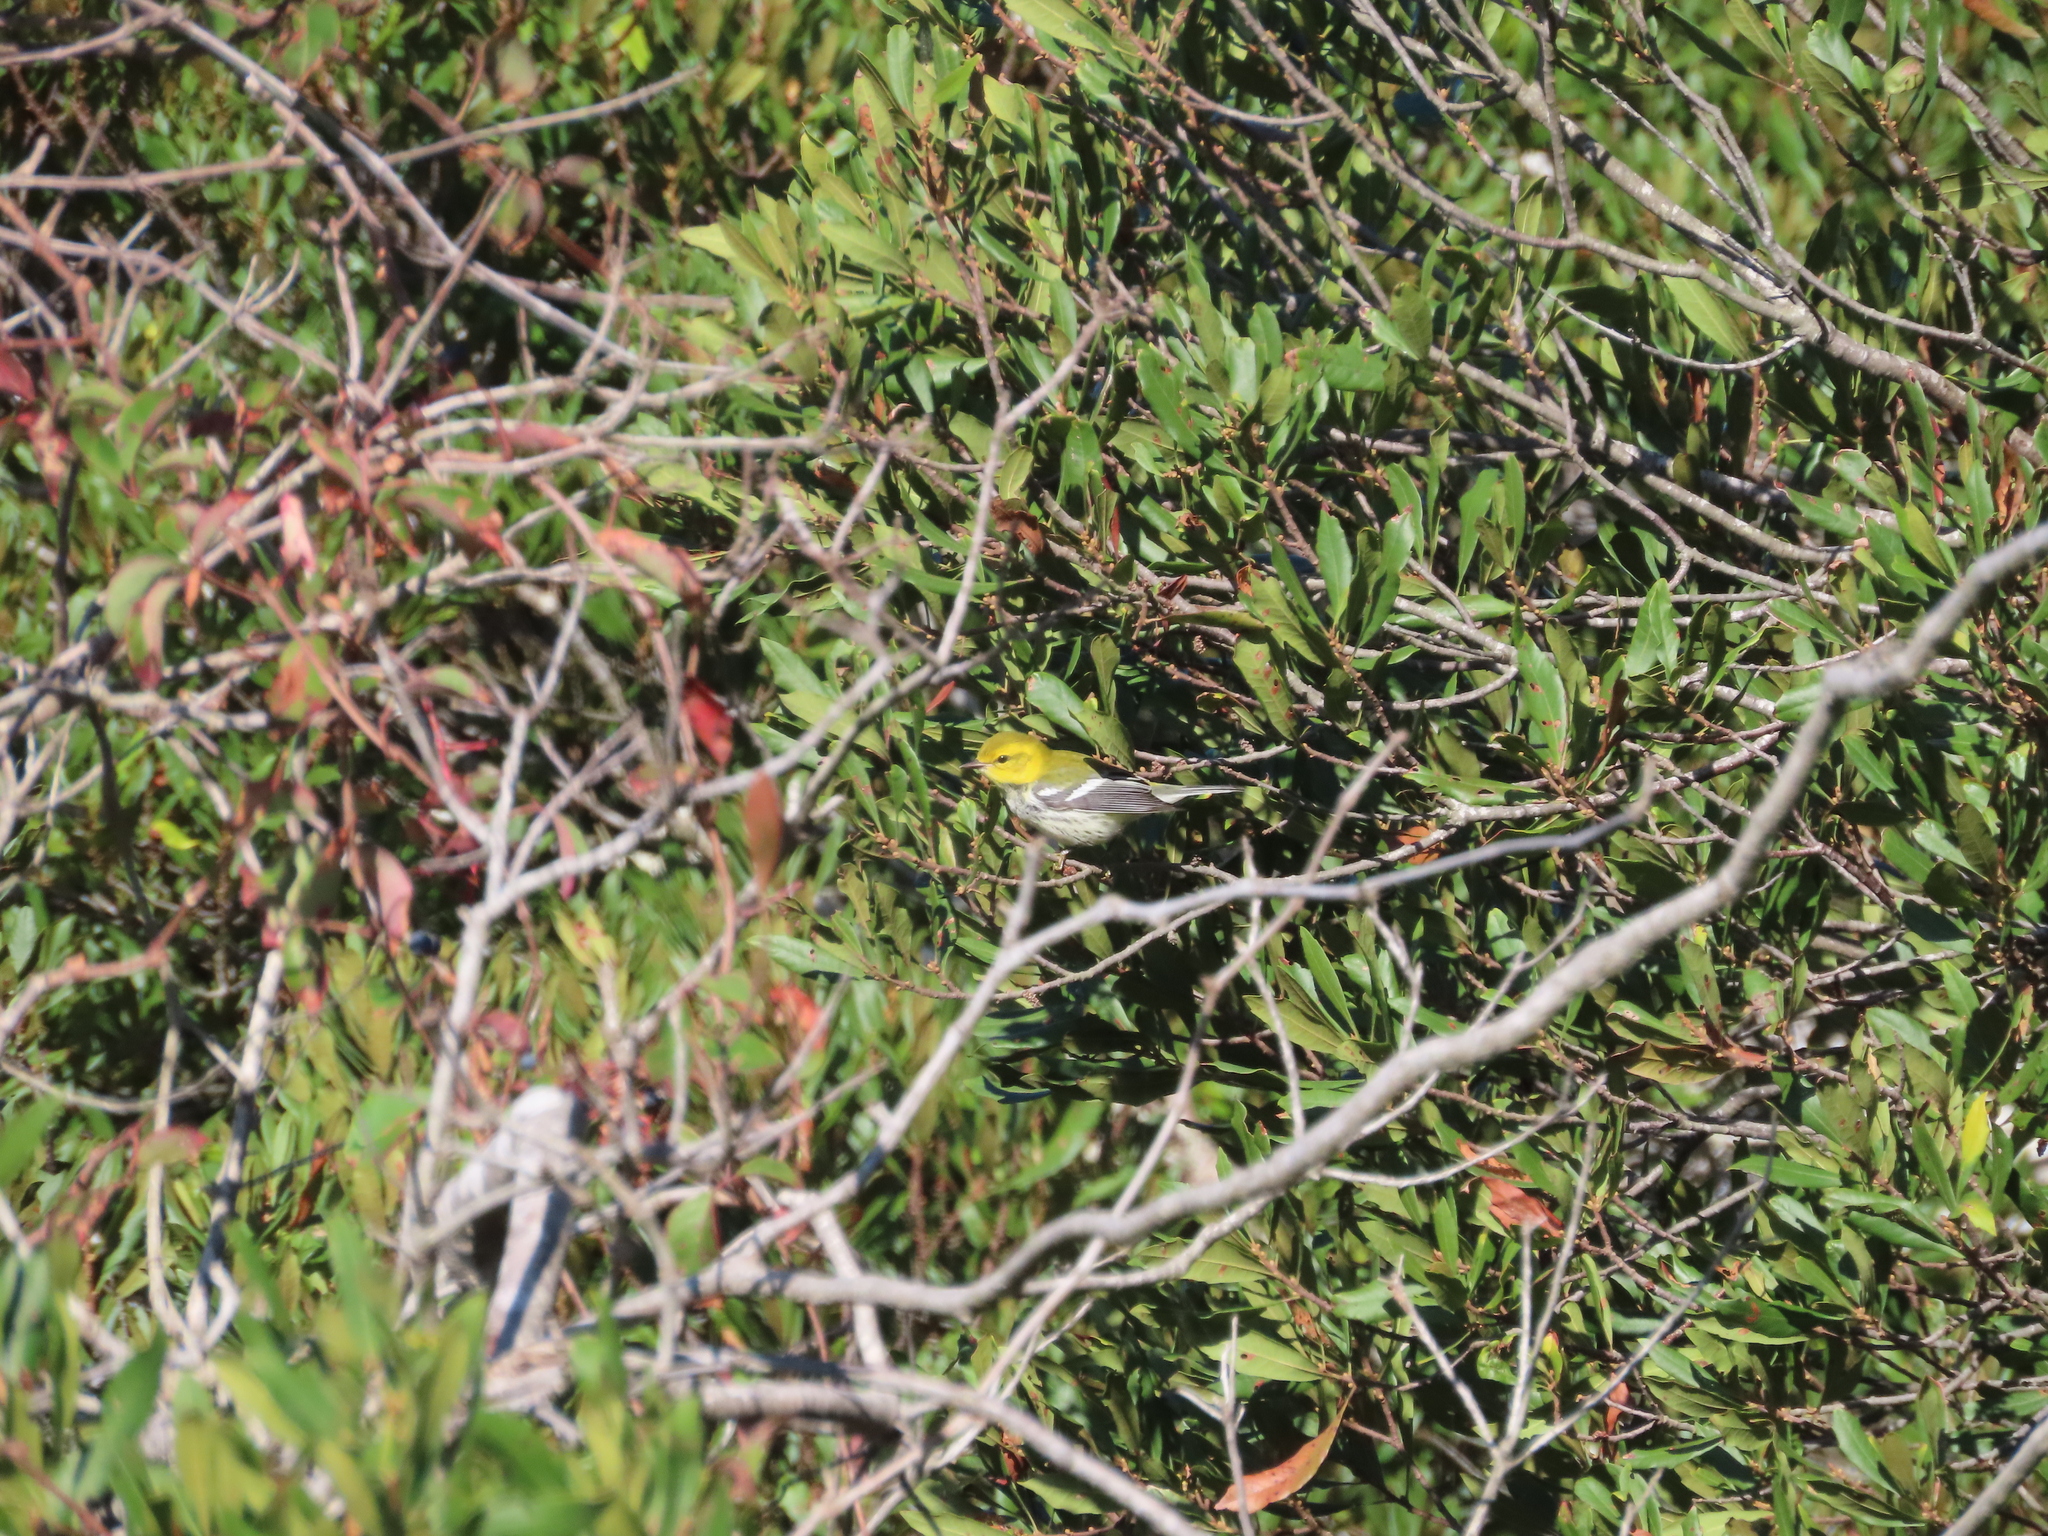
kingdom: Animalia
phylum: Chordata
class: Aves
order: Passeriformes
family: Parulidae
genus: Setophaga
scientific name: Setophaga virens
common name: Black-throated green warbler
